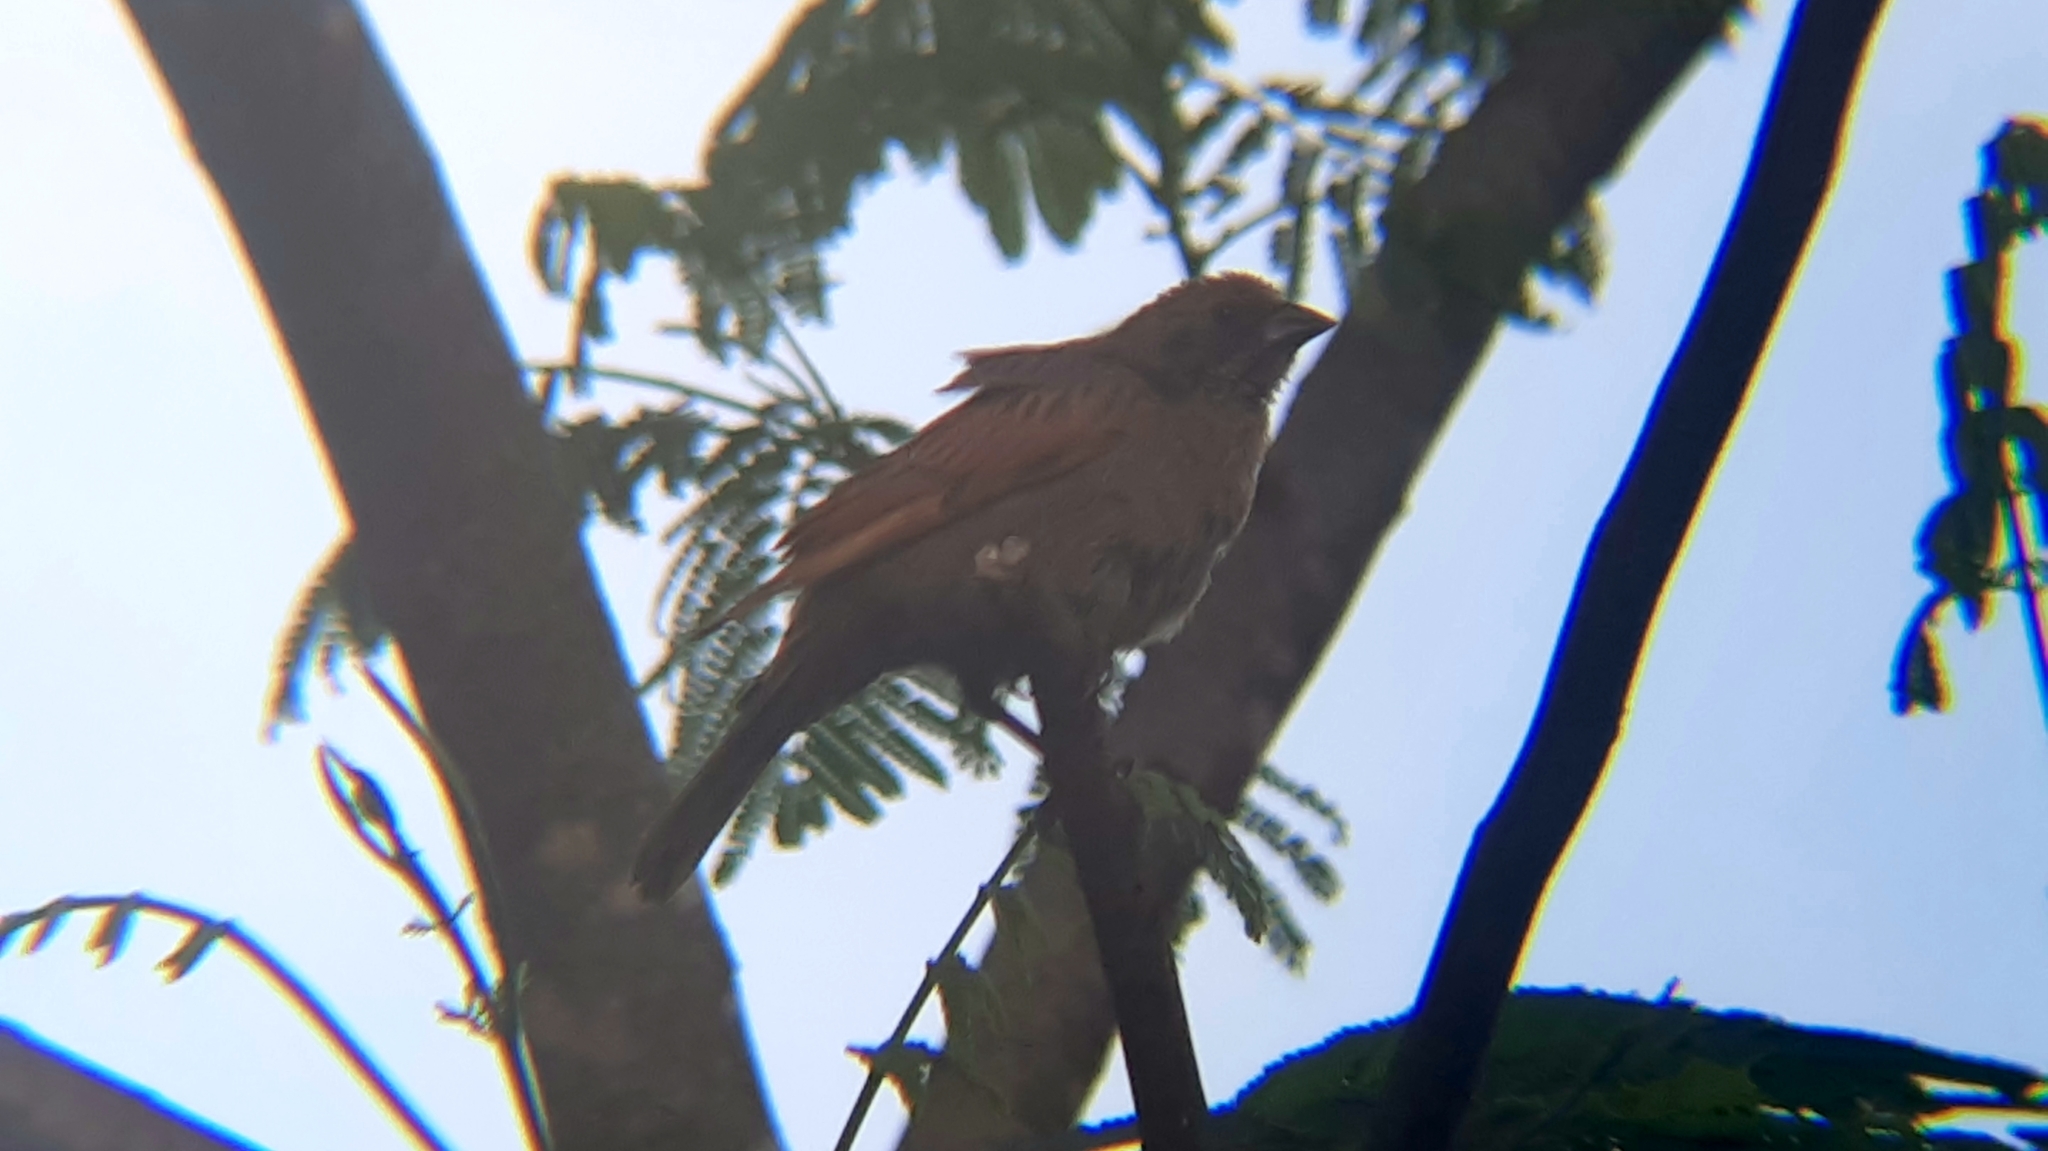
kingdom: Animalia
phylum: Chordata
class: Aves
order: Passeriformes
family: Cardinalidae
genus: Cyanoloxia
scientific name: Cyanoloxia brissonii
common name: Ultramarine grosbeak
